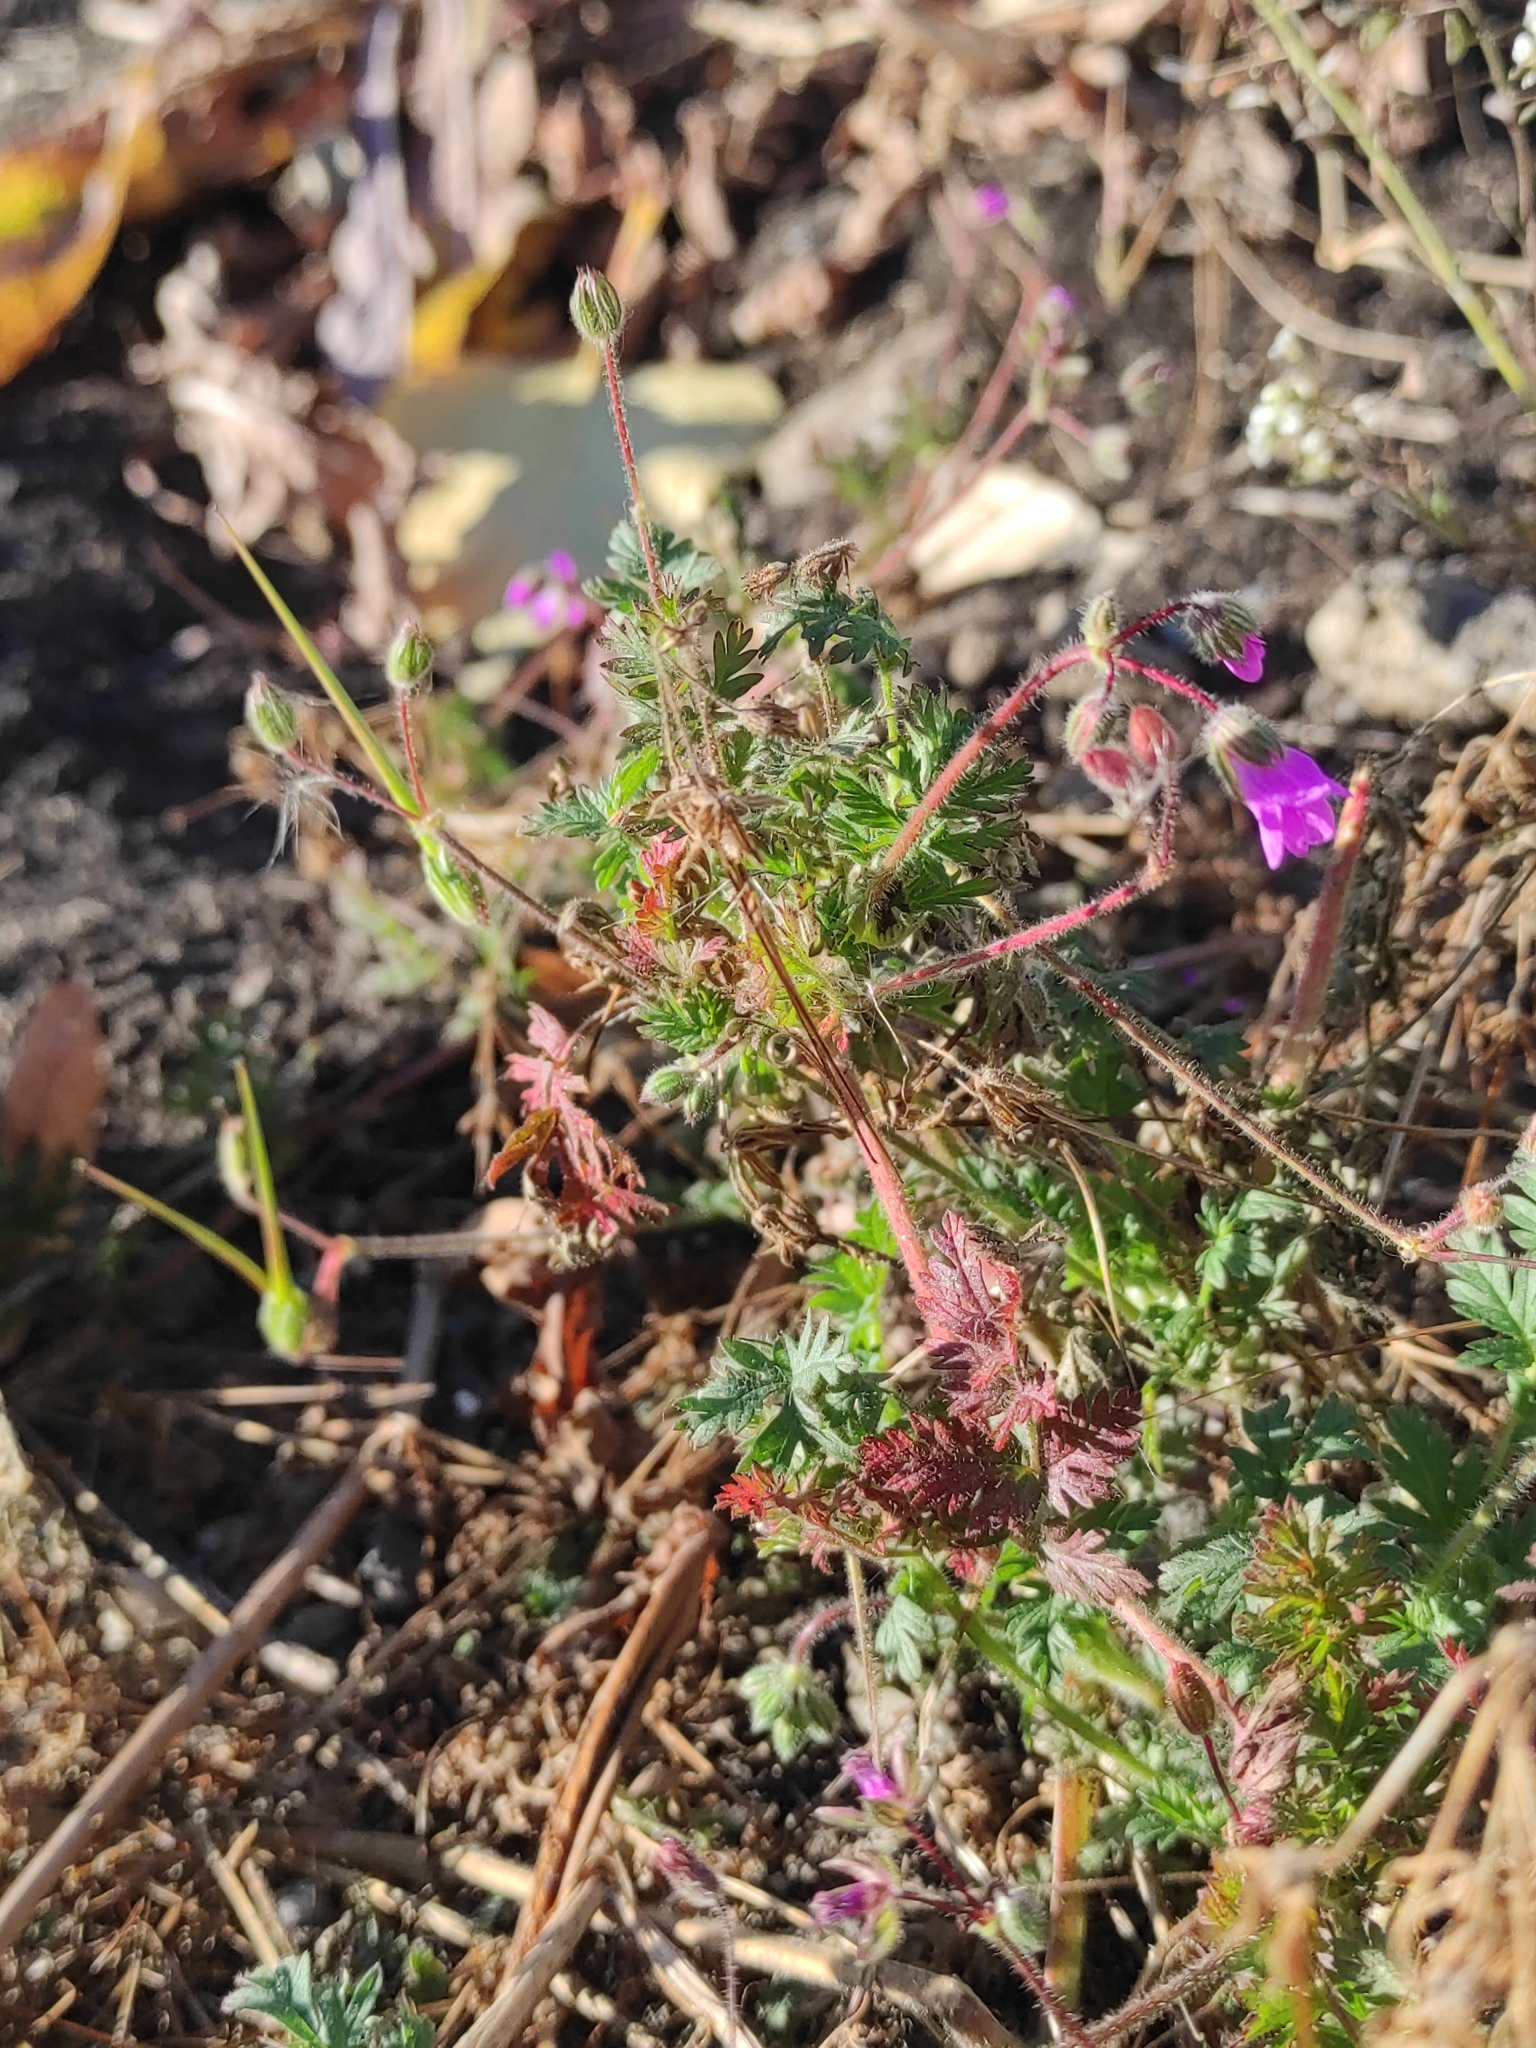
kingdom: Plantae
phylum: Tracheophyta
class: Magnoliopsida
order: Geraniales
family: Geraniaceae
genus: Erodium
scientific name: Erodium cicutarium
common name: Common stork's-bill
